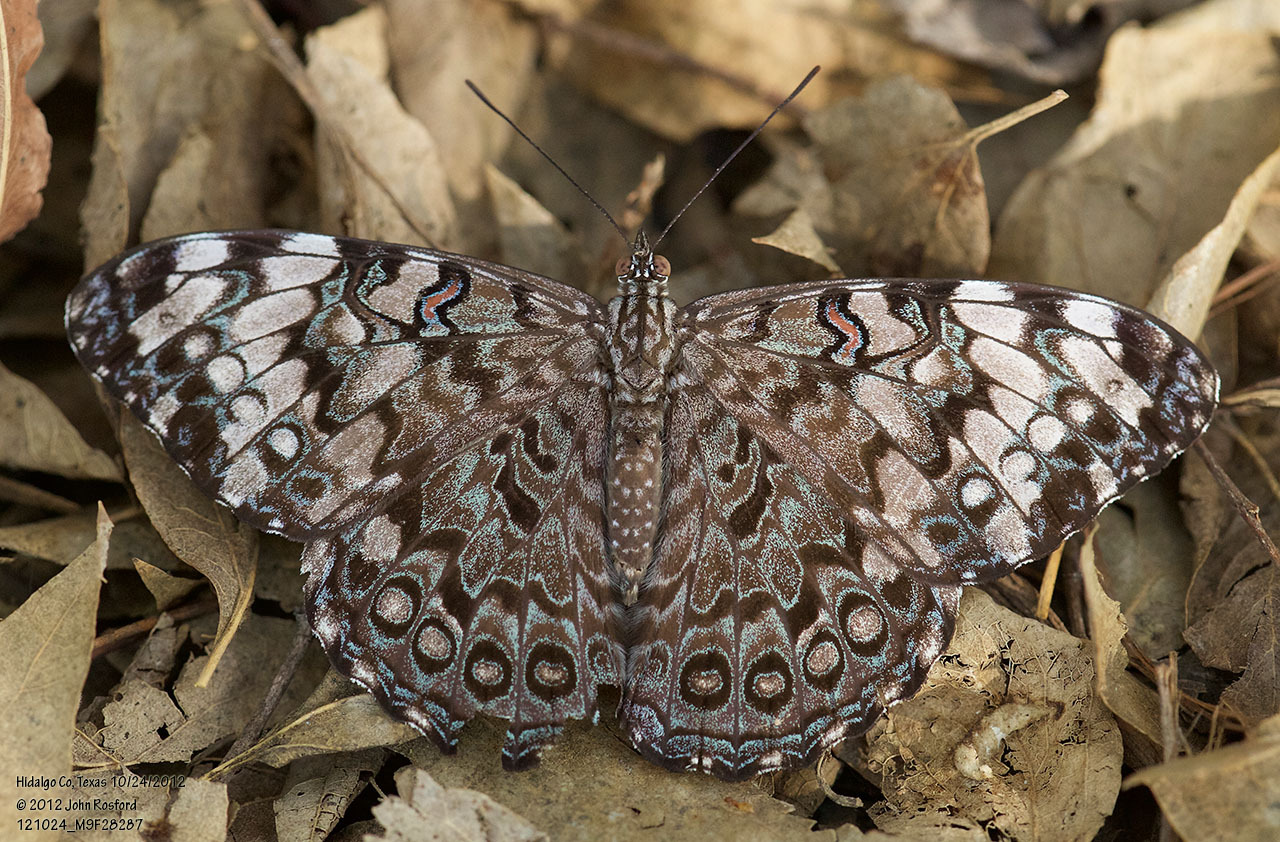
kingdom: Animalia
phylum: Arthropoda
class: Insecta
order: Lepidoptera
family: Nymphalidae
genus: Hamadryas
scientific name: Hamadryas guatemalena
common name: Guatemalan cracker
